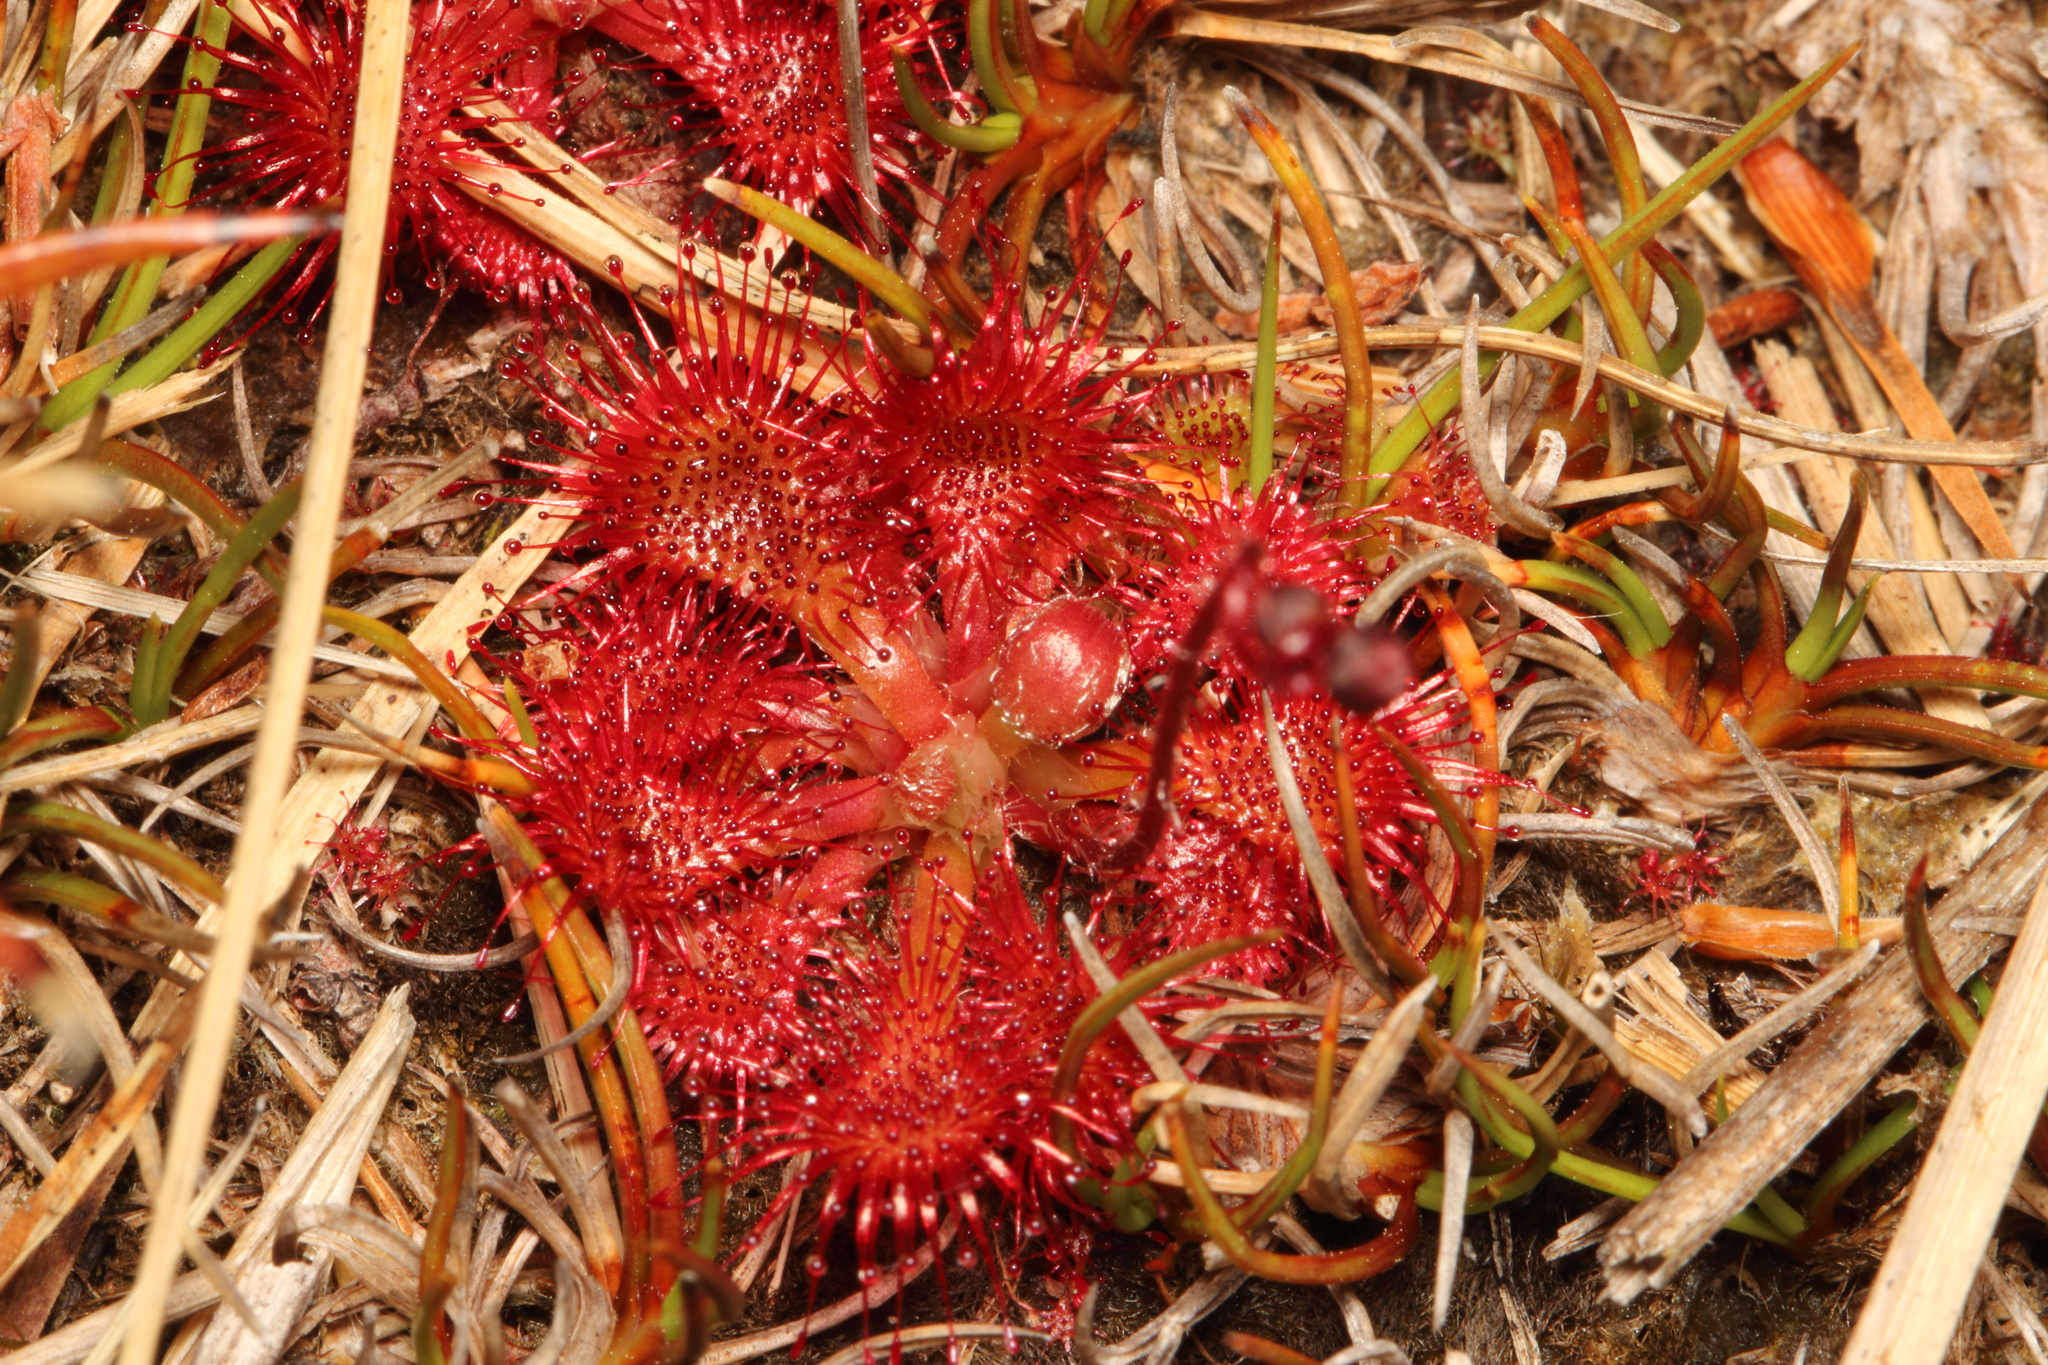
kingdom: Plantae
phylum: Tracheophyta
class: Magnoliopsida
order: Caryophyllales
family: Droseraceae
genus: Drosera
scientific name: Drosera spatulata
